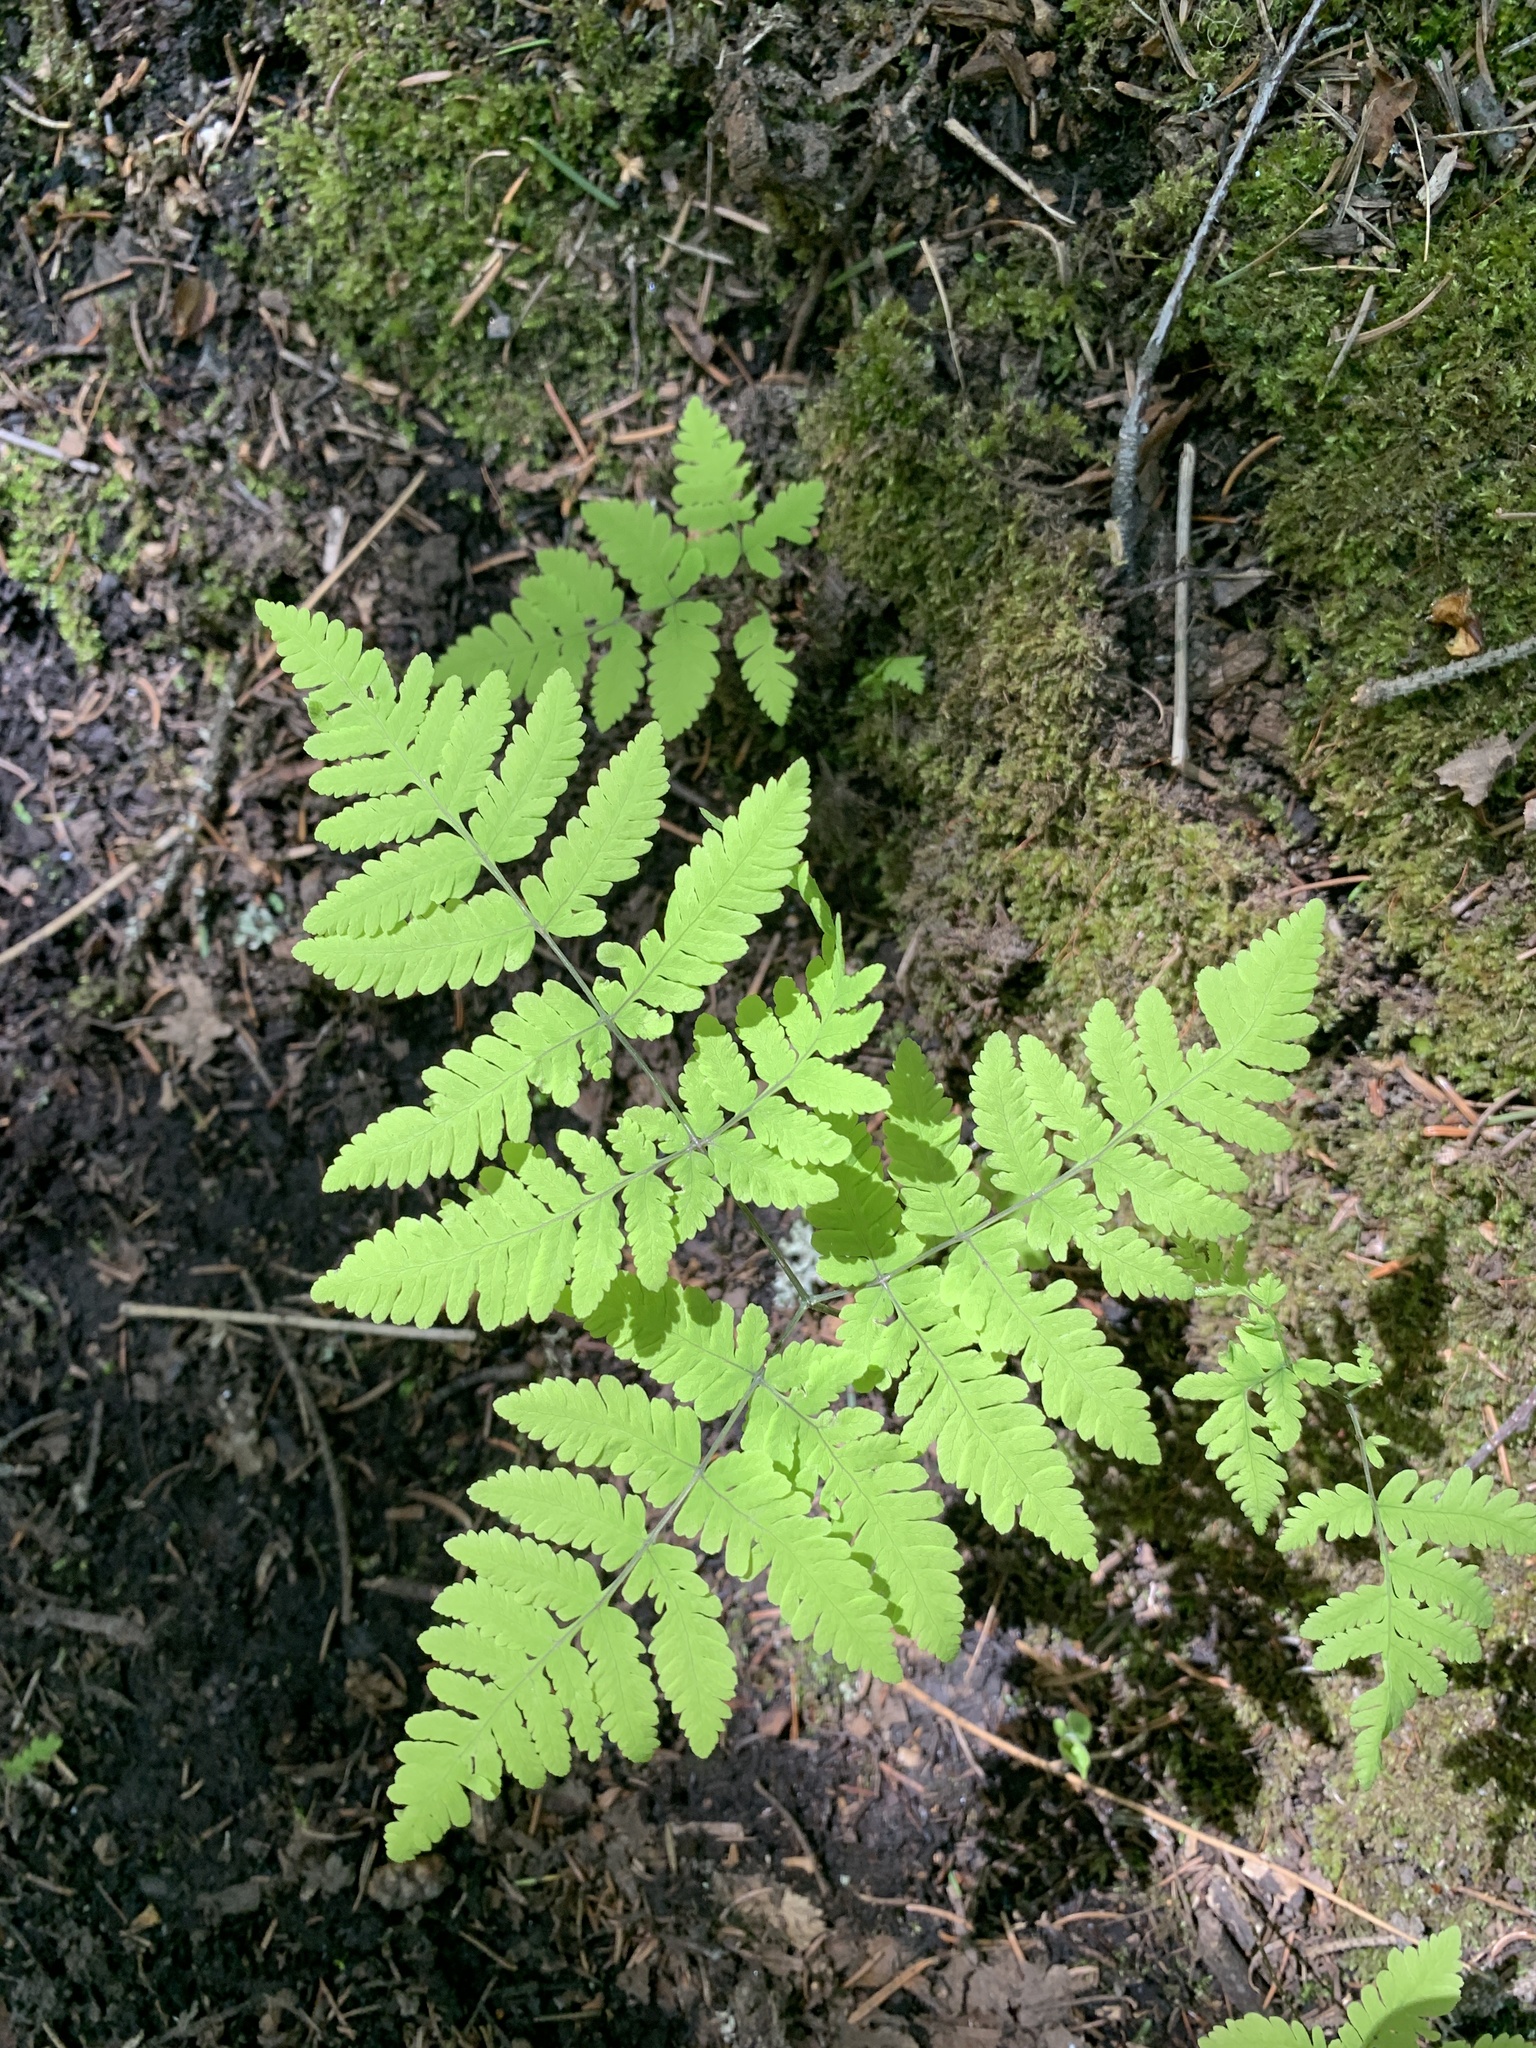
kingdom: Plantae
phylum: Tracheophyta
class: Polypodiopsida
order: Polypodiales
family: Cystopteridaceae
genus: Gymnocarpium
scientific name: Gymnocarpium dryopteris
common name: Oak fern
